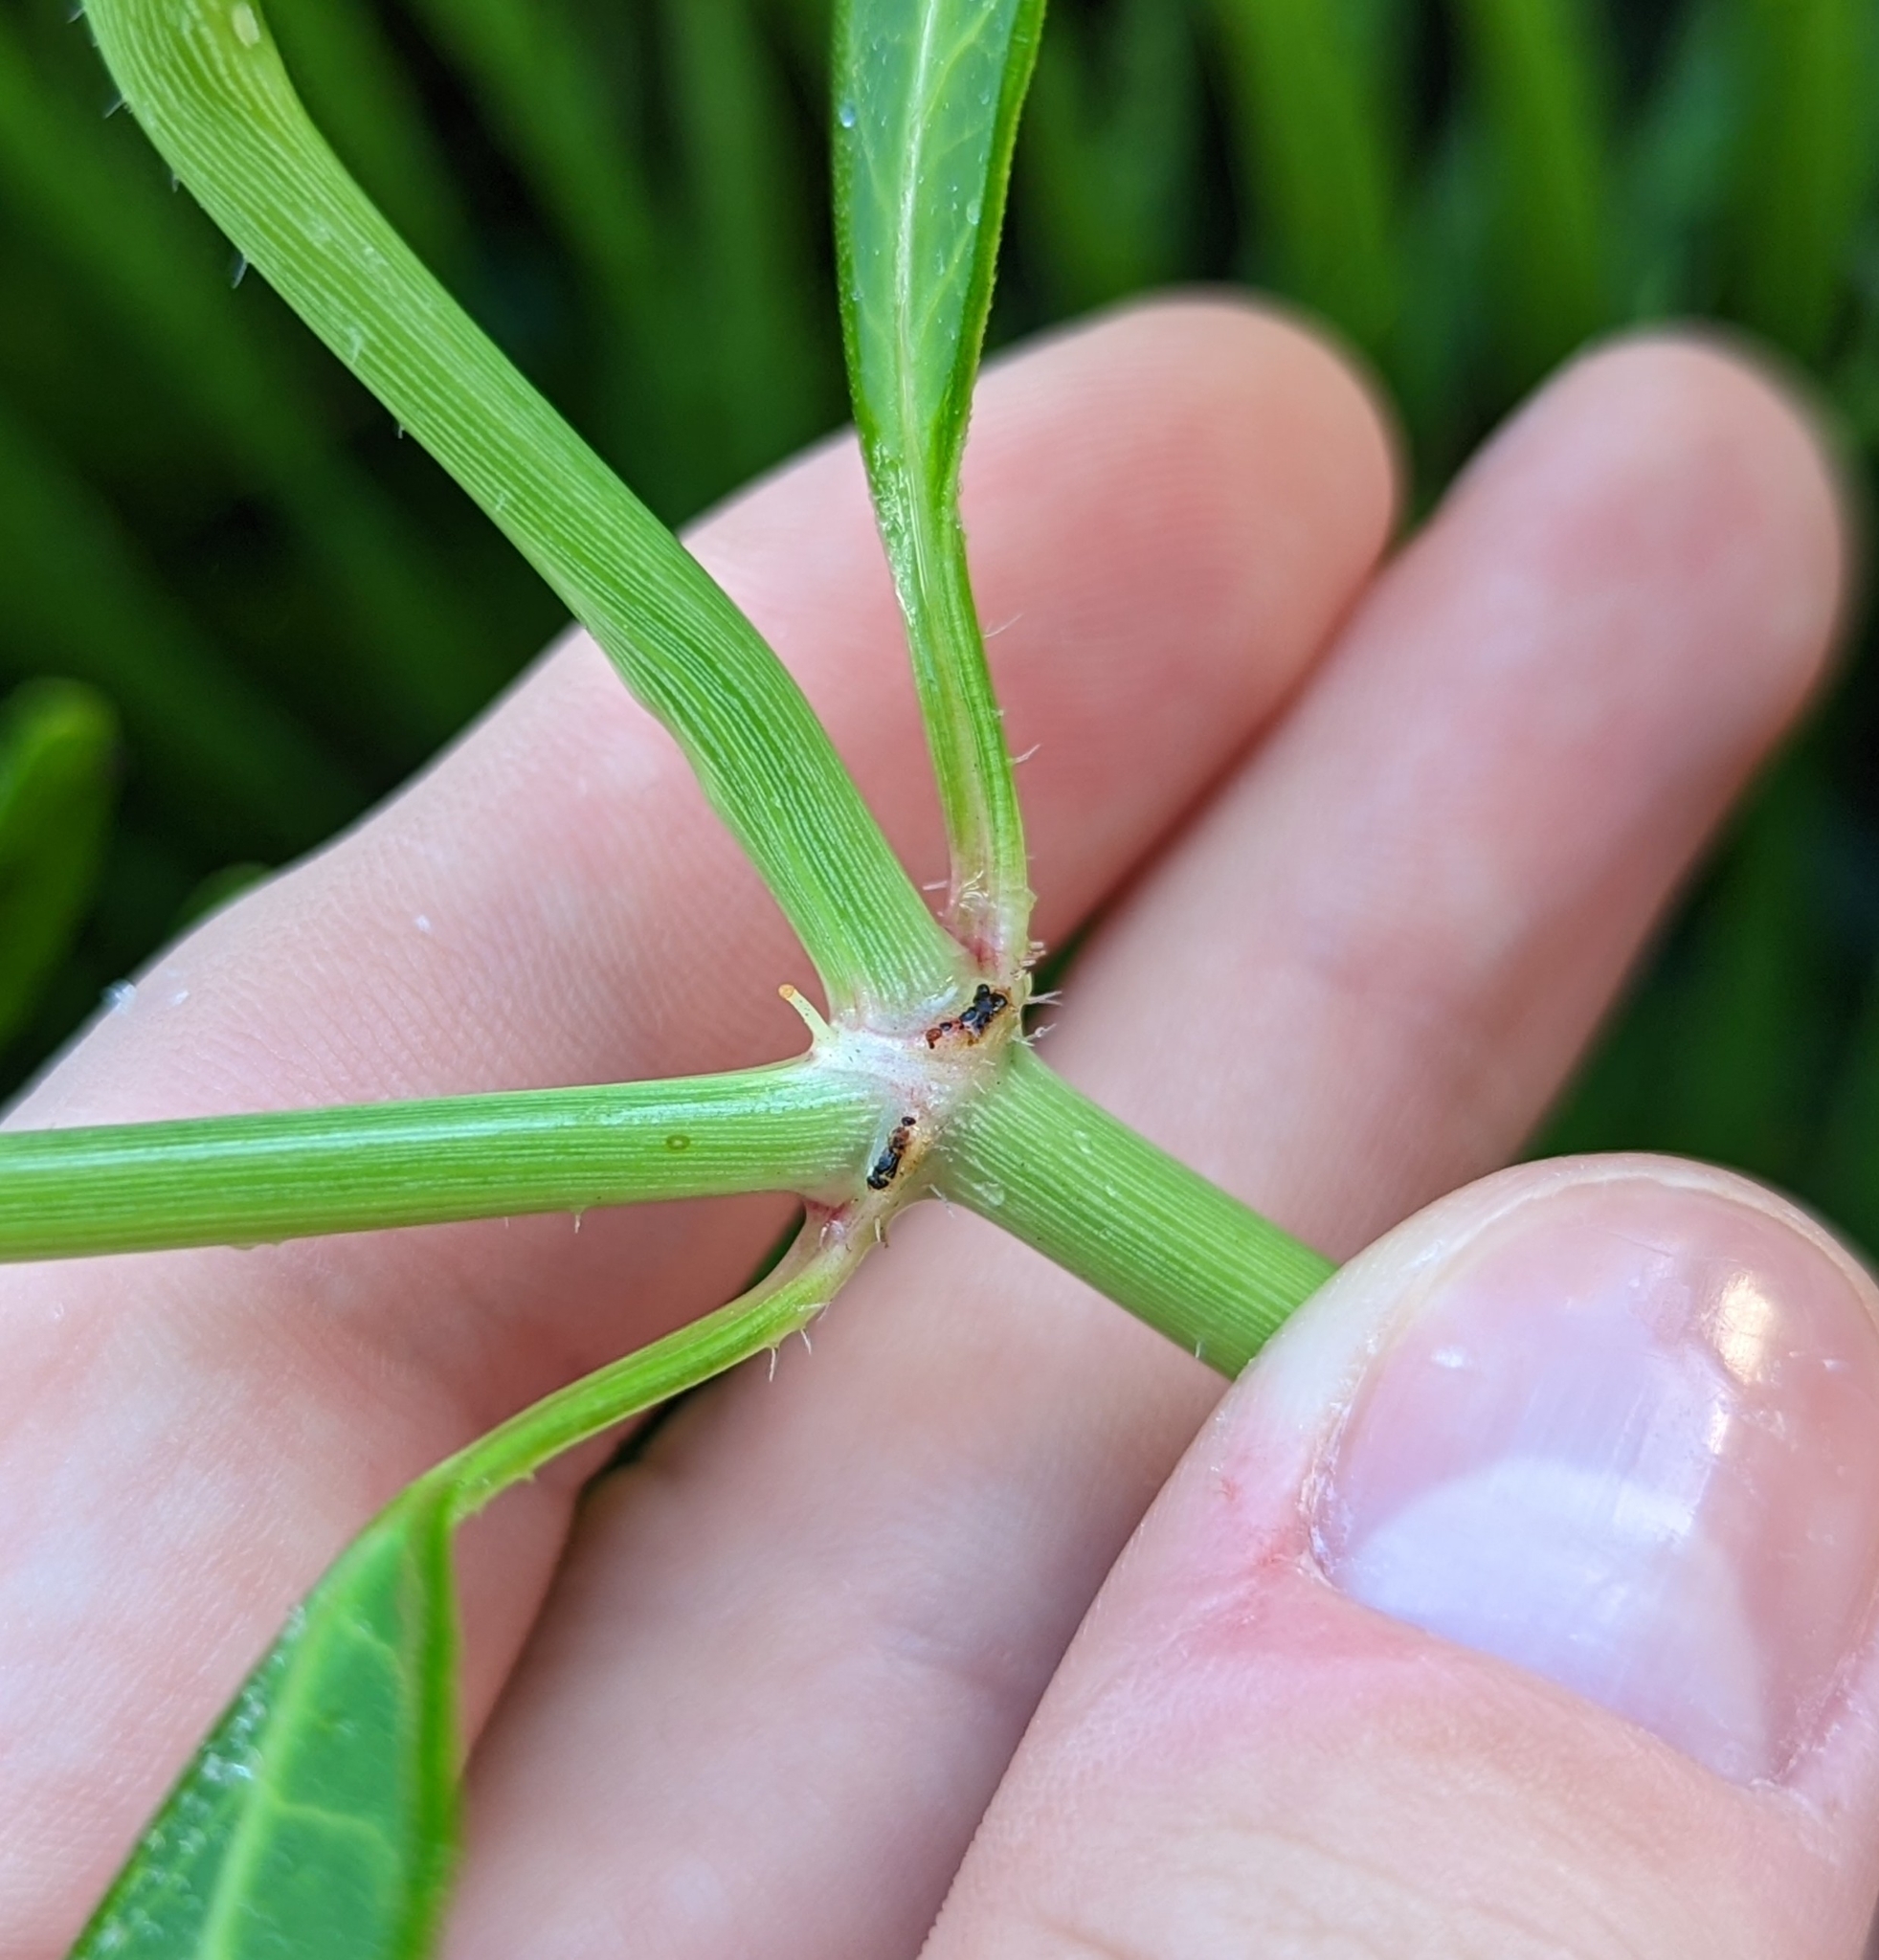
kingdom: Plantae
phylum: Tracheophyta
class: Magnoliopsida
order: Malpighiales
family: Euphorbiaceae
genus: Euphorbia
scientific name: Euphorbia heterophylla
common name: Mexican fireplant
